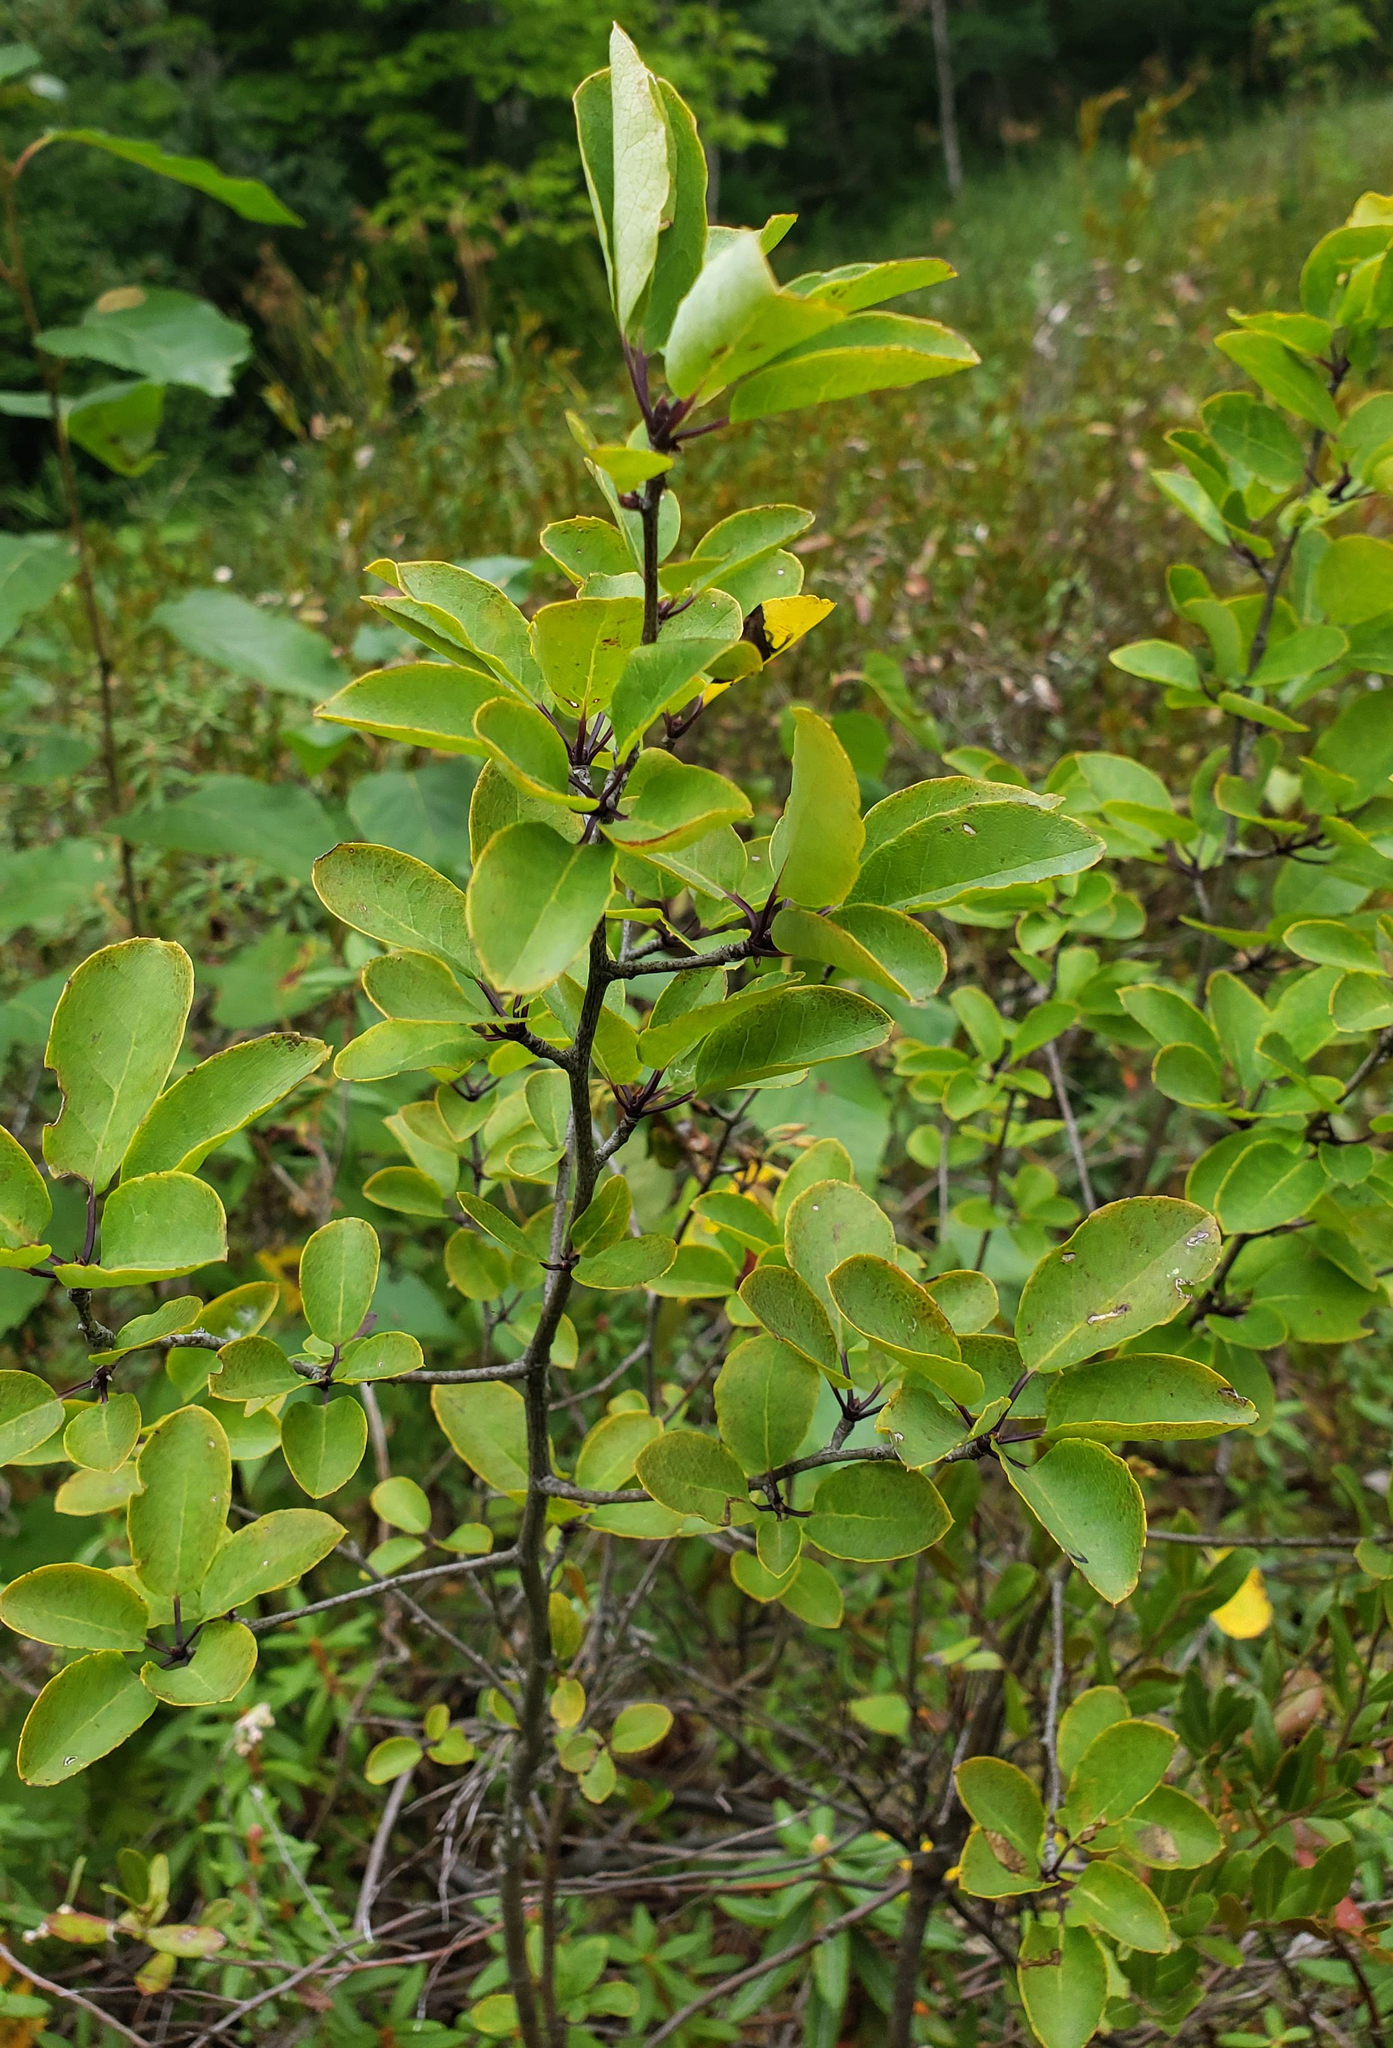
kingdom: Plantae
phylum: Tracheophyta
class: Magnoliopsida
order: Aquifoliales
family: Aquifoliaceae
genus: Ilex
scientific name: Ilex mucronata
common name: Catberry
